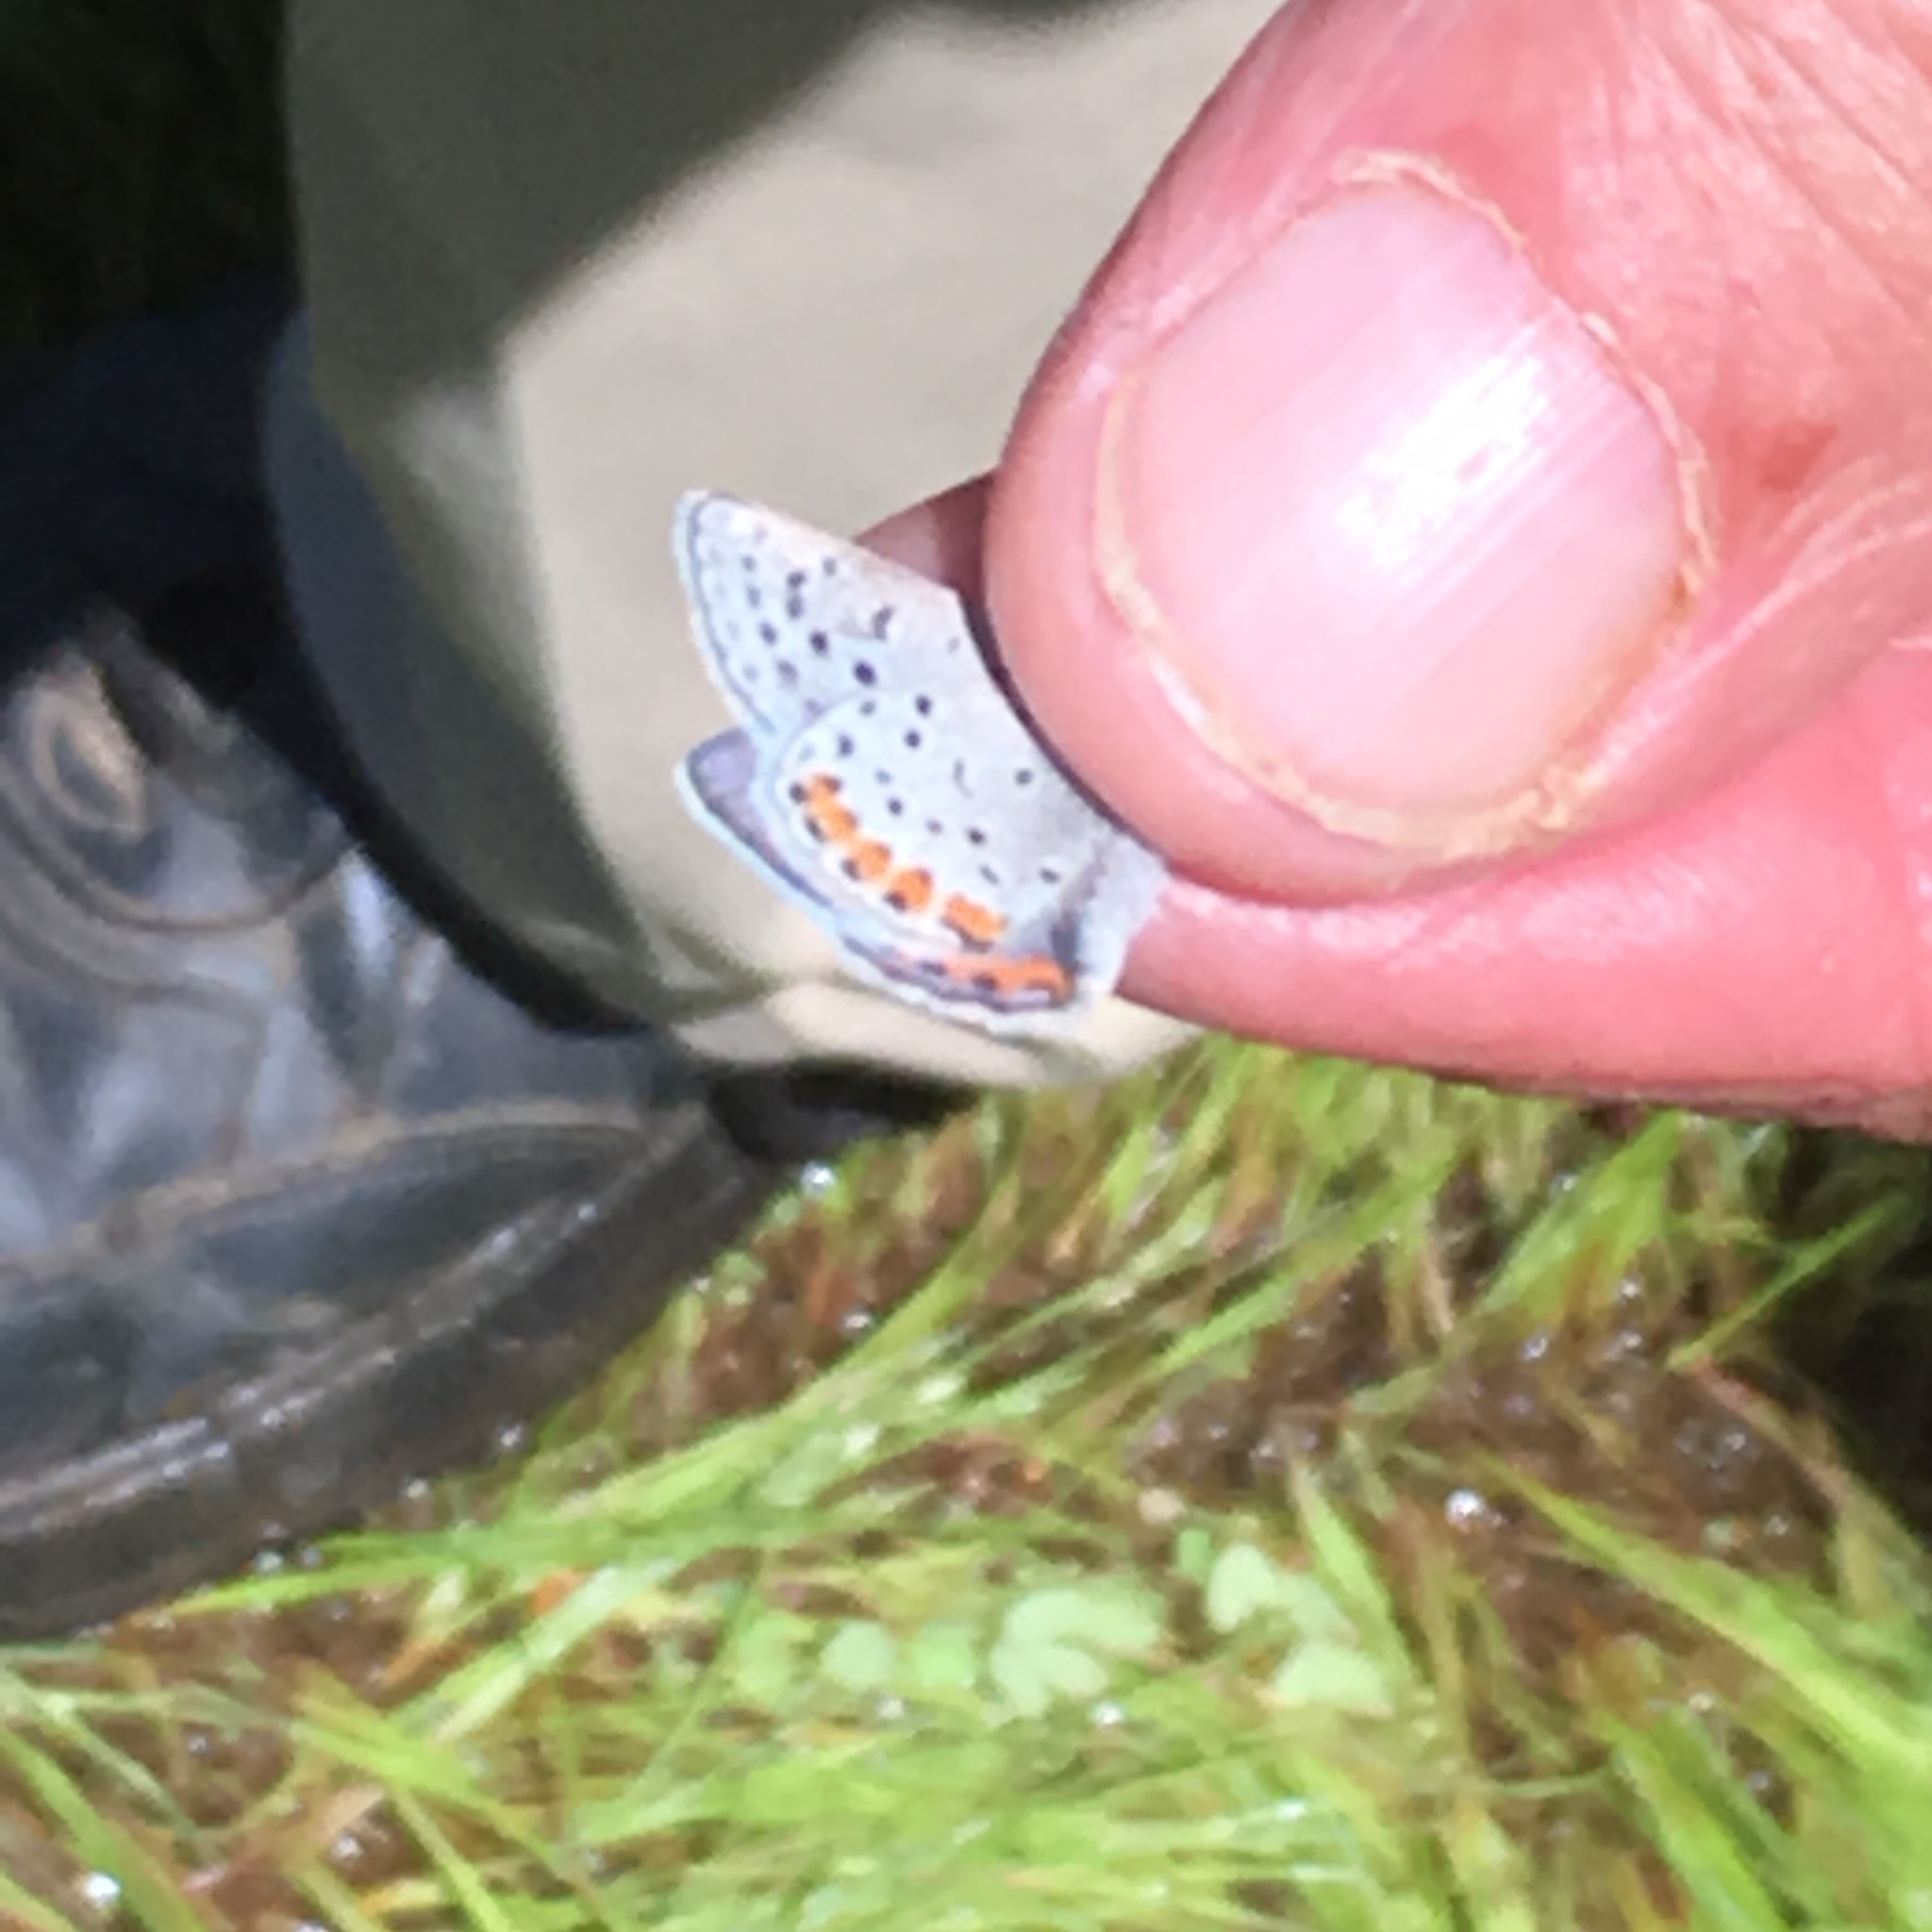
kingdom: Animalia
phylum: Arthropoda
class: Insecta
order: Lepidoptera
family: Lycaenidae
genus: Icaricia
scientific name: Icaricia acmon
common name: Acmon blue
